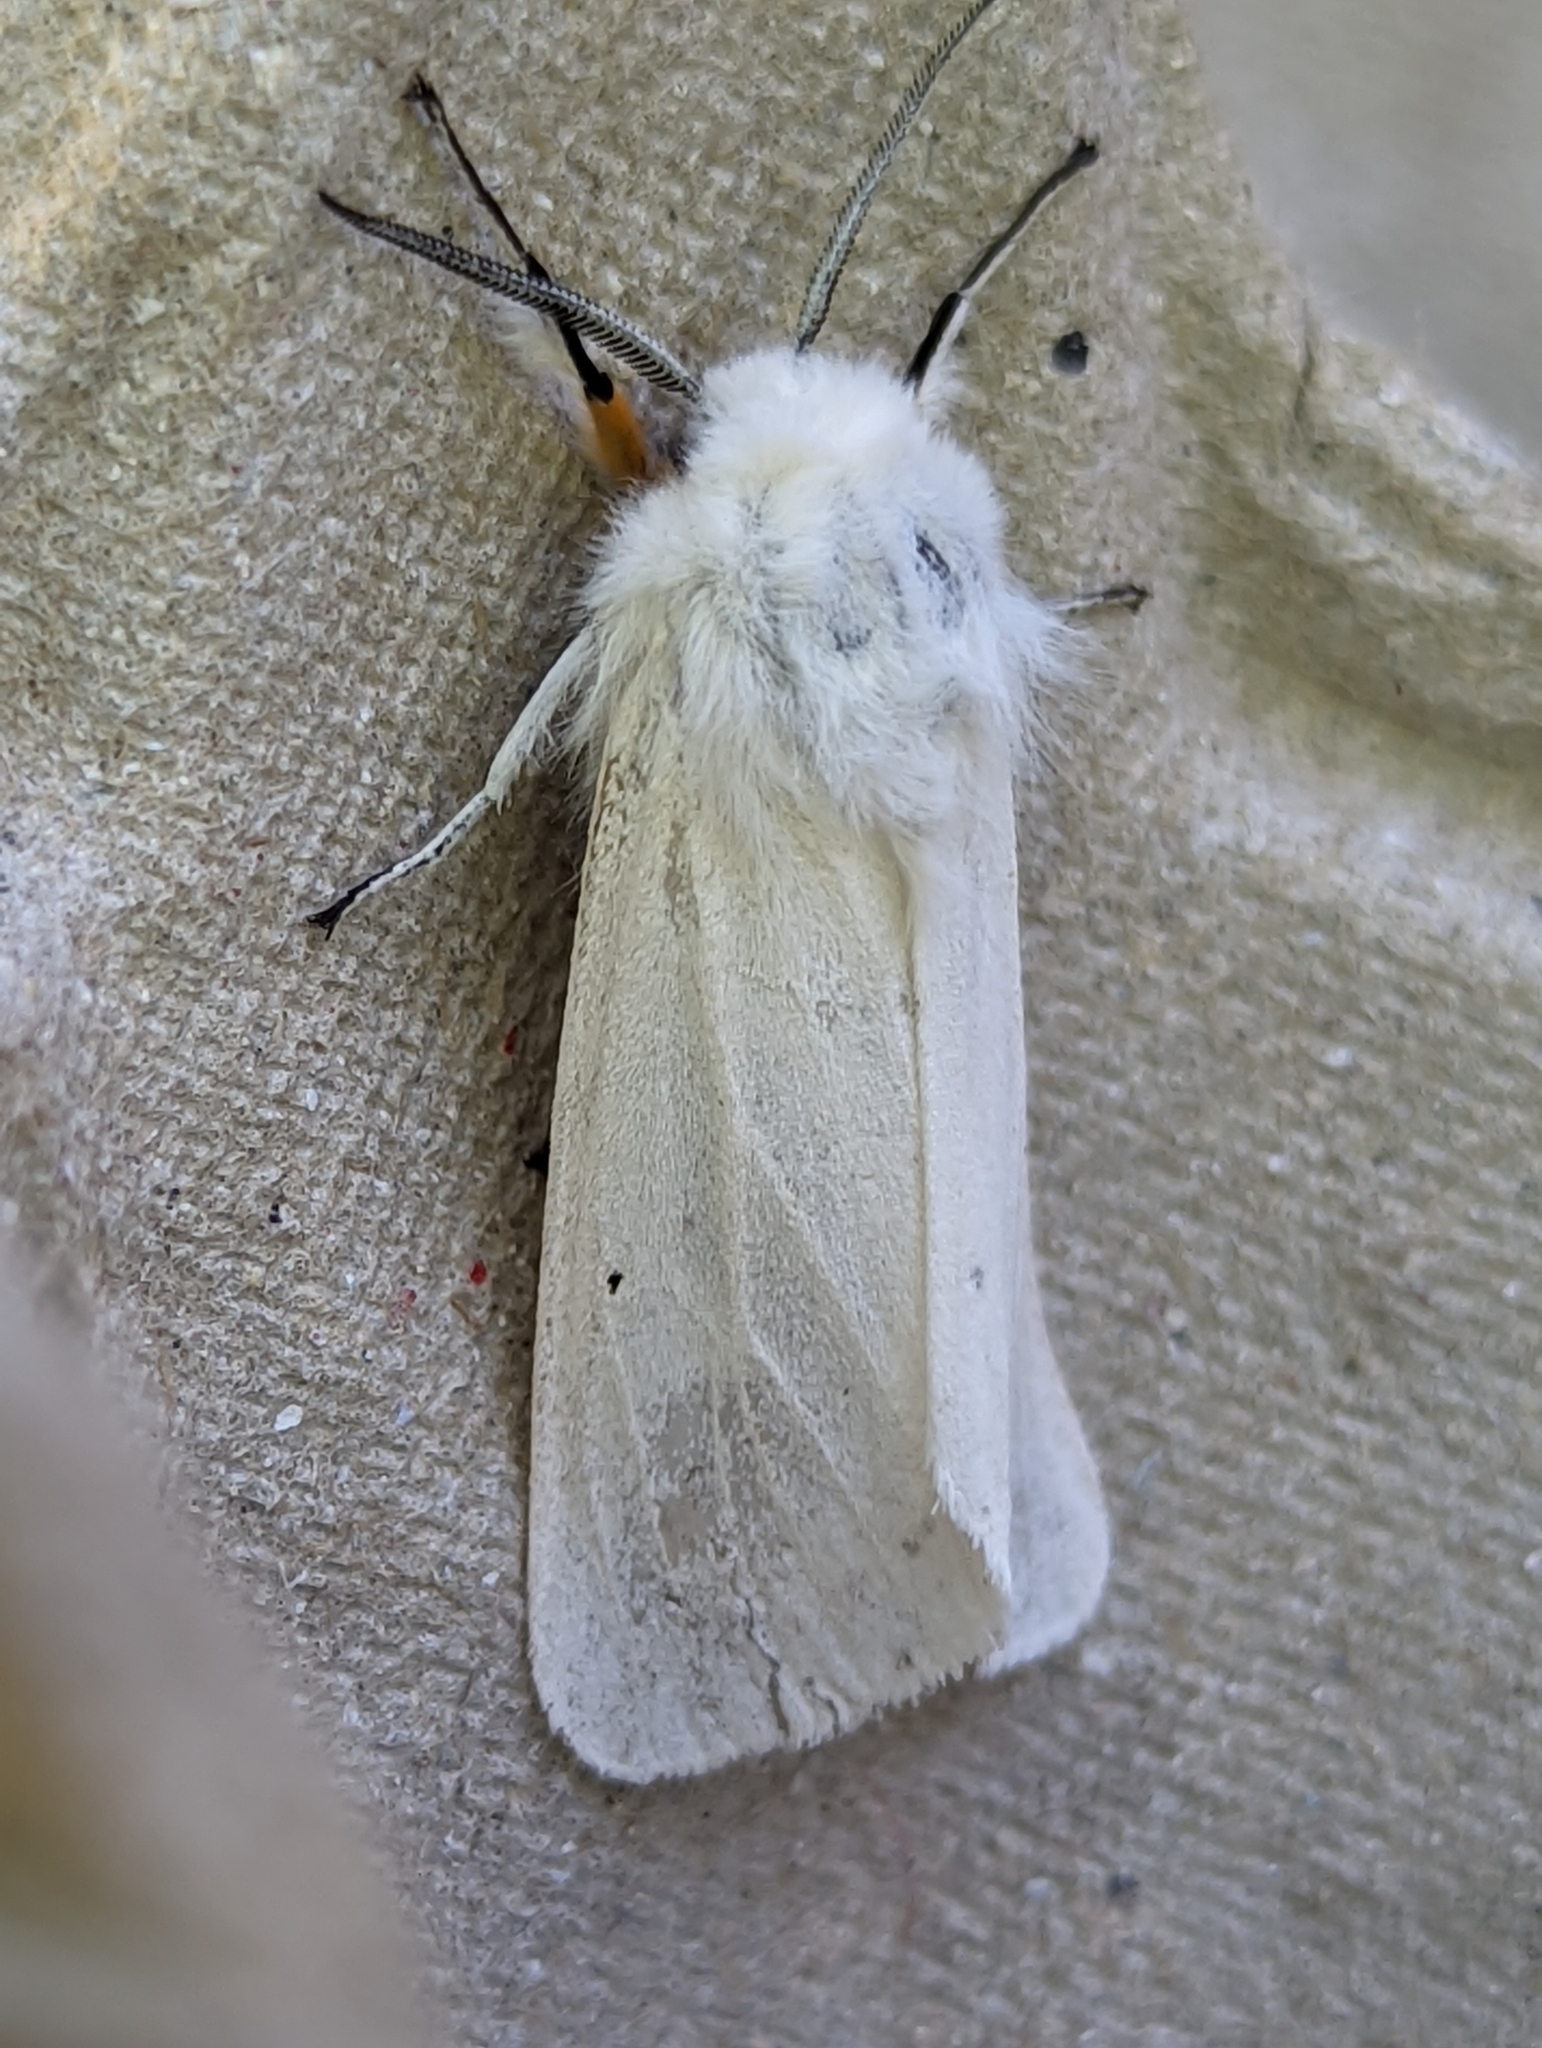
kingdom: Animalia
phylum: Arthropoda
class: Insecta
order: Lepidoptera
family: Erebidae
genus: Spilosoma
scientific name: Spilosoma urticae
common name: Water ermine
